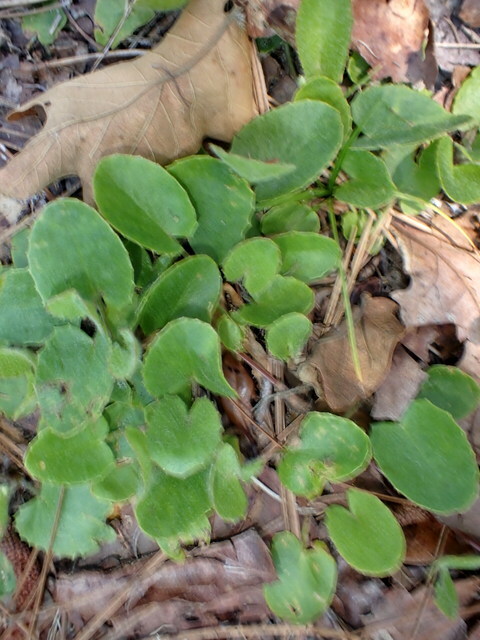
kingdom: Plantae
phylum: Tracheophyta
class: Magnoliopsida
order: Apiales
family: Apiaceae
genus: Centella
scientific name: Centella erecta
